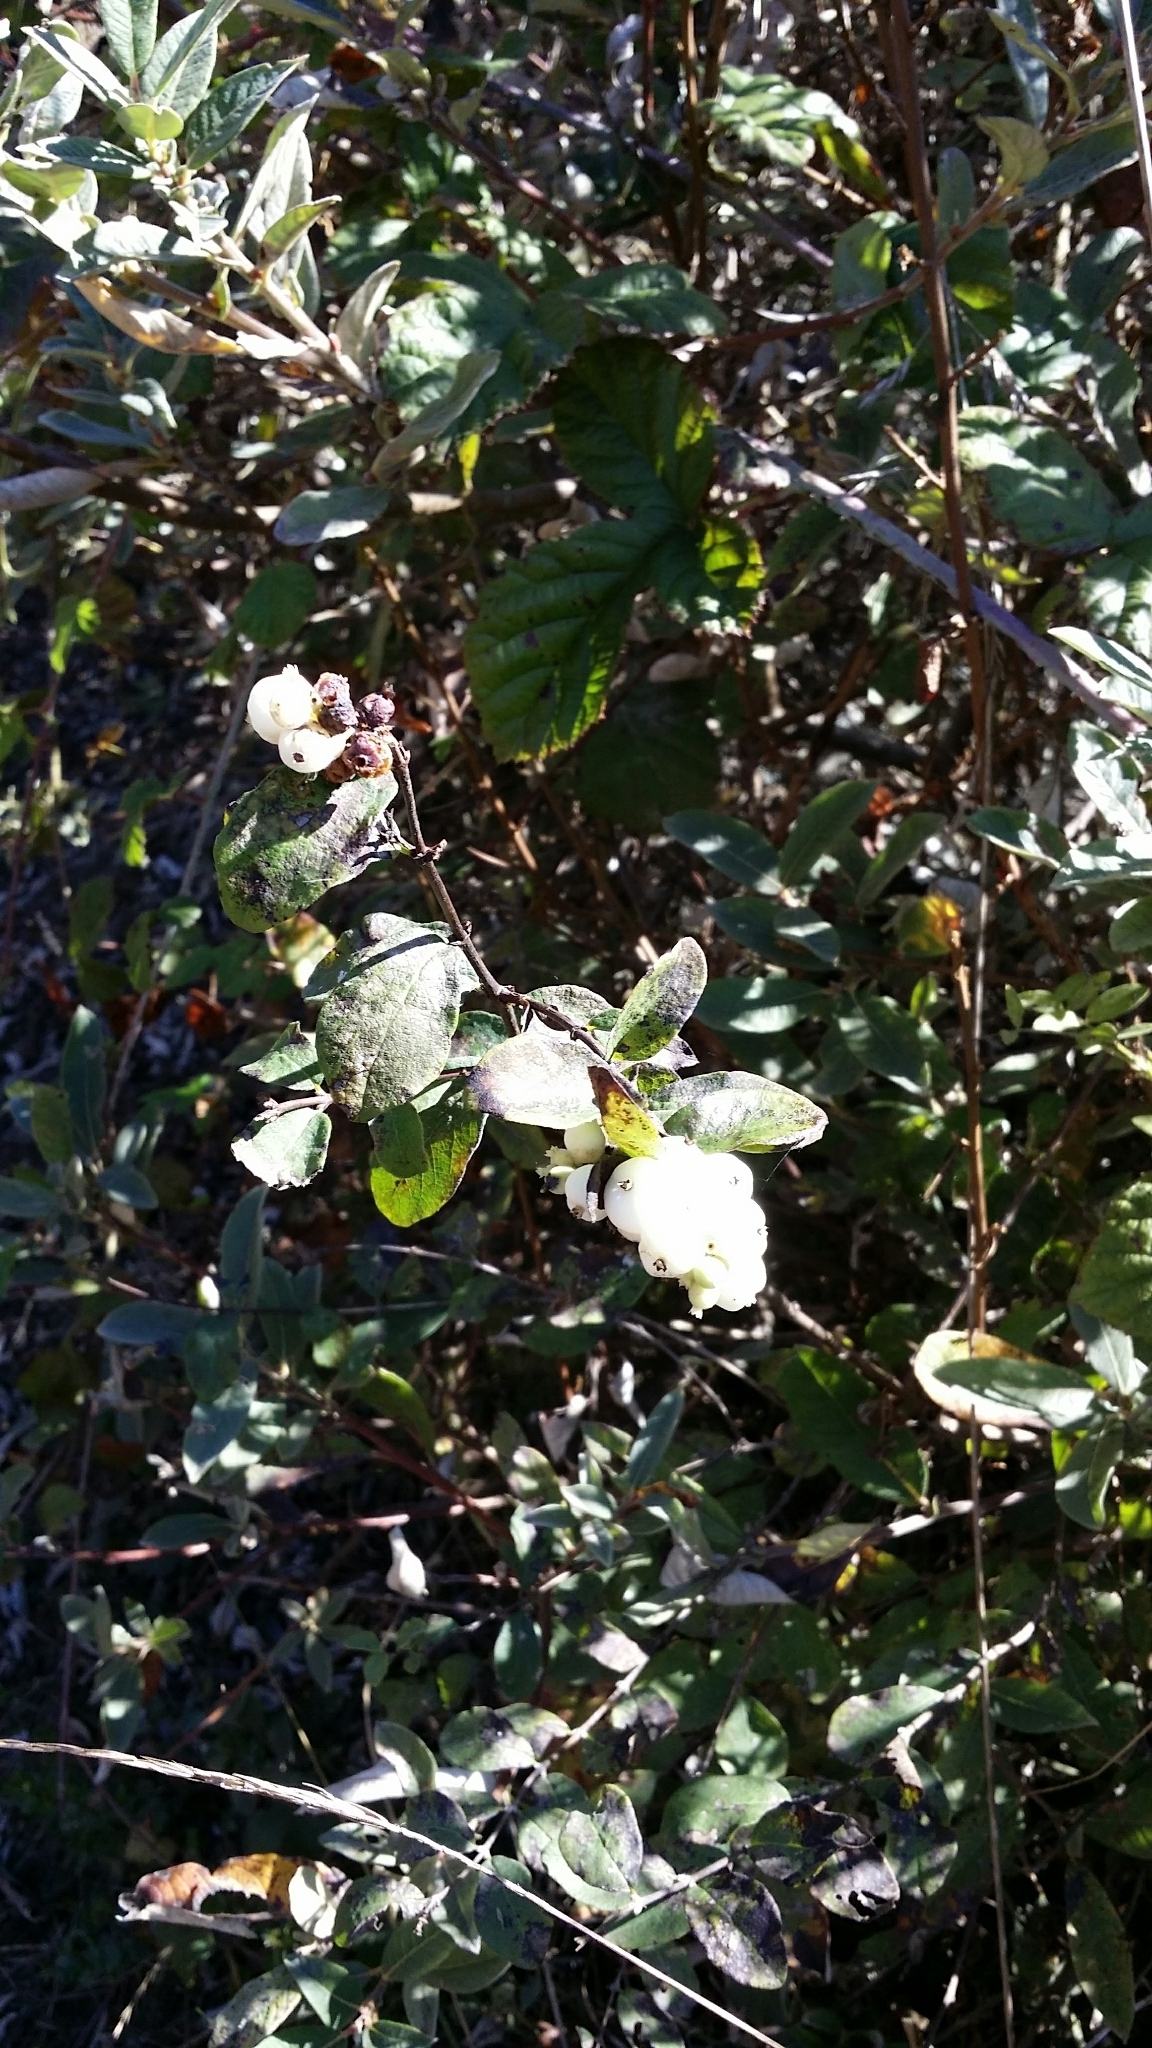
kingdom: Plantae
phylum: Tracheophyta
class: Magnoliopsida
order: Dipsacales
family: Caprifoliaceae
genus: Symphoricarpos
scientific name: Symphoricarpos albus
